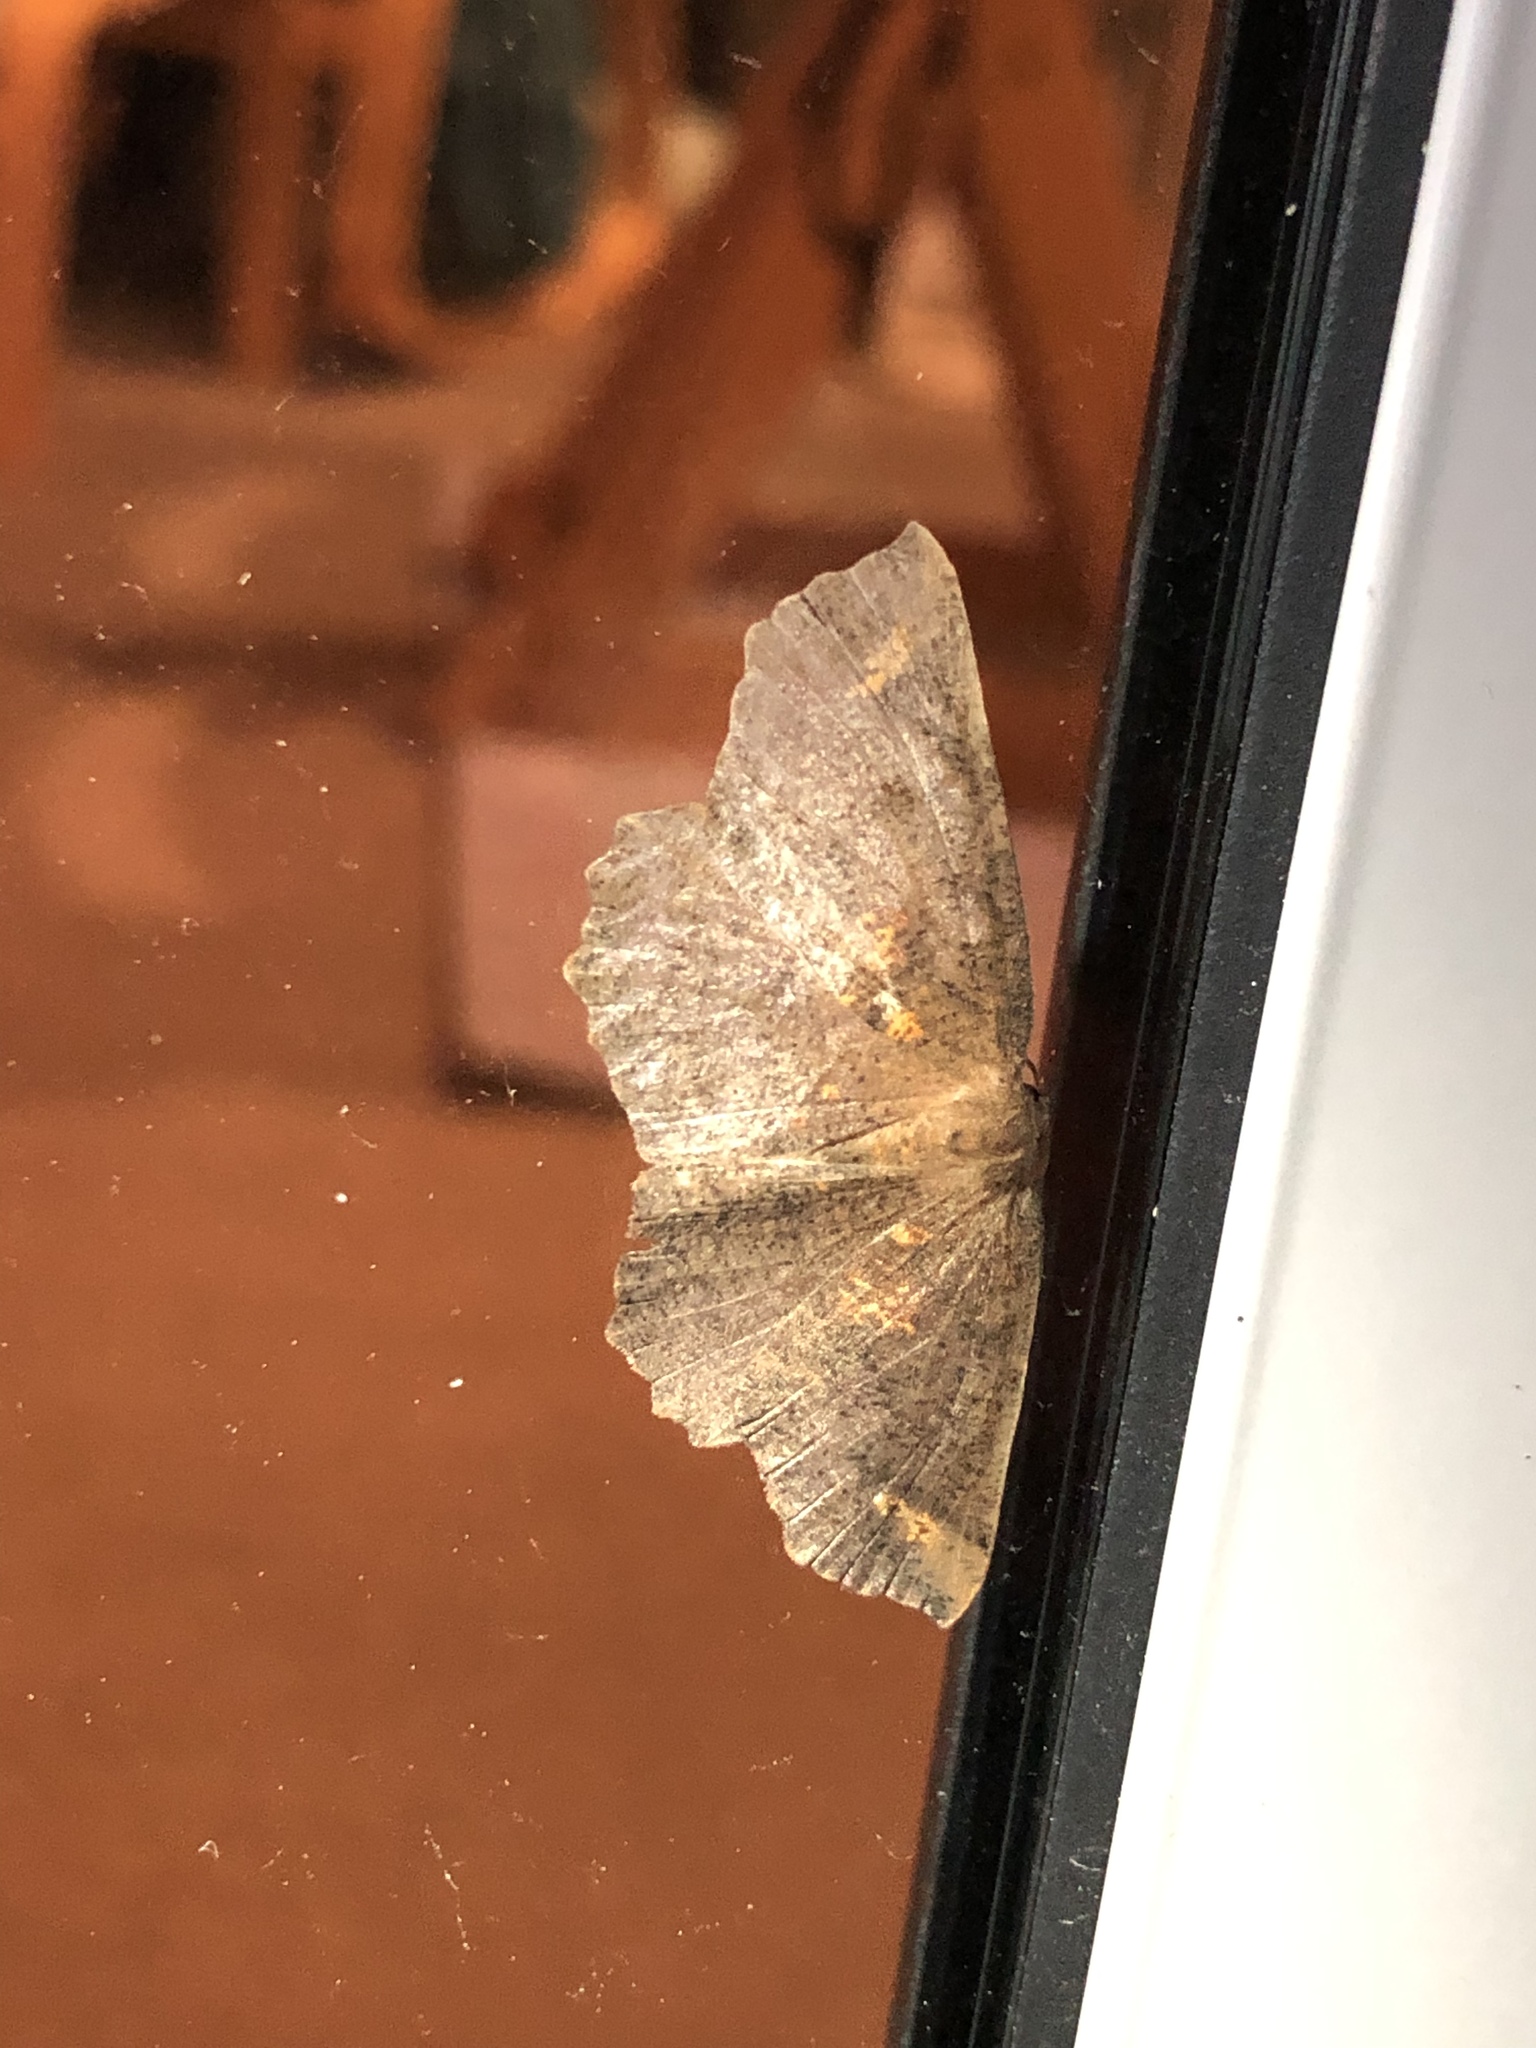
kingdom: Animalia
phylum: Arthropoda
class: Insecta
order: Lepidoptera
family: Geometridae
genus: Xyridacma
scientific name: Xyridacma ustaria
